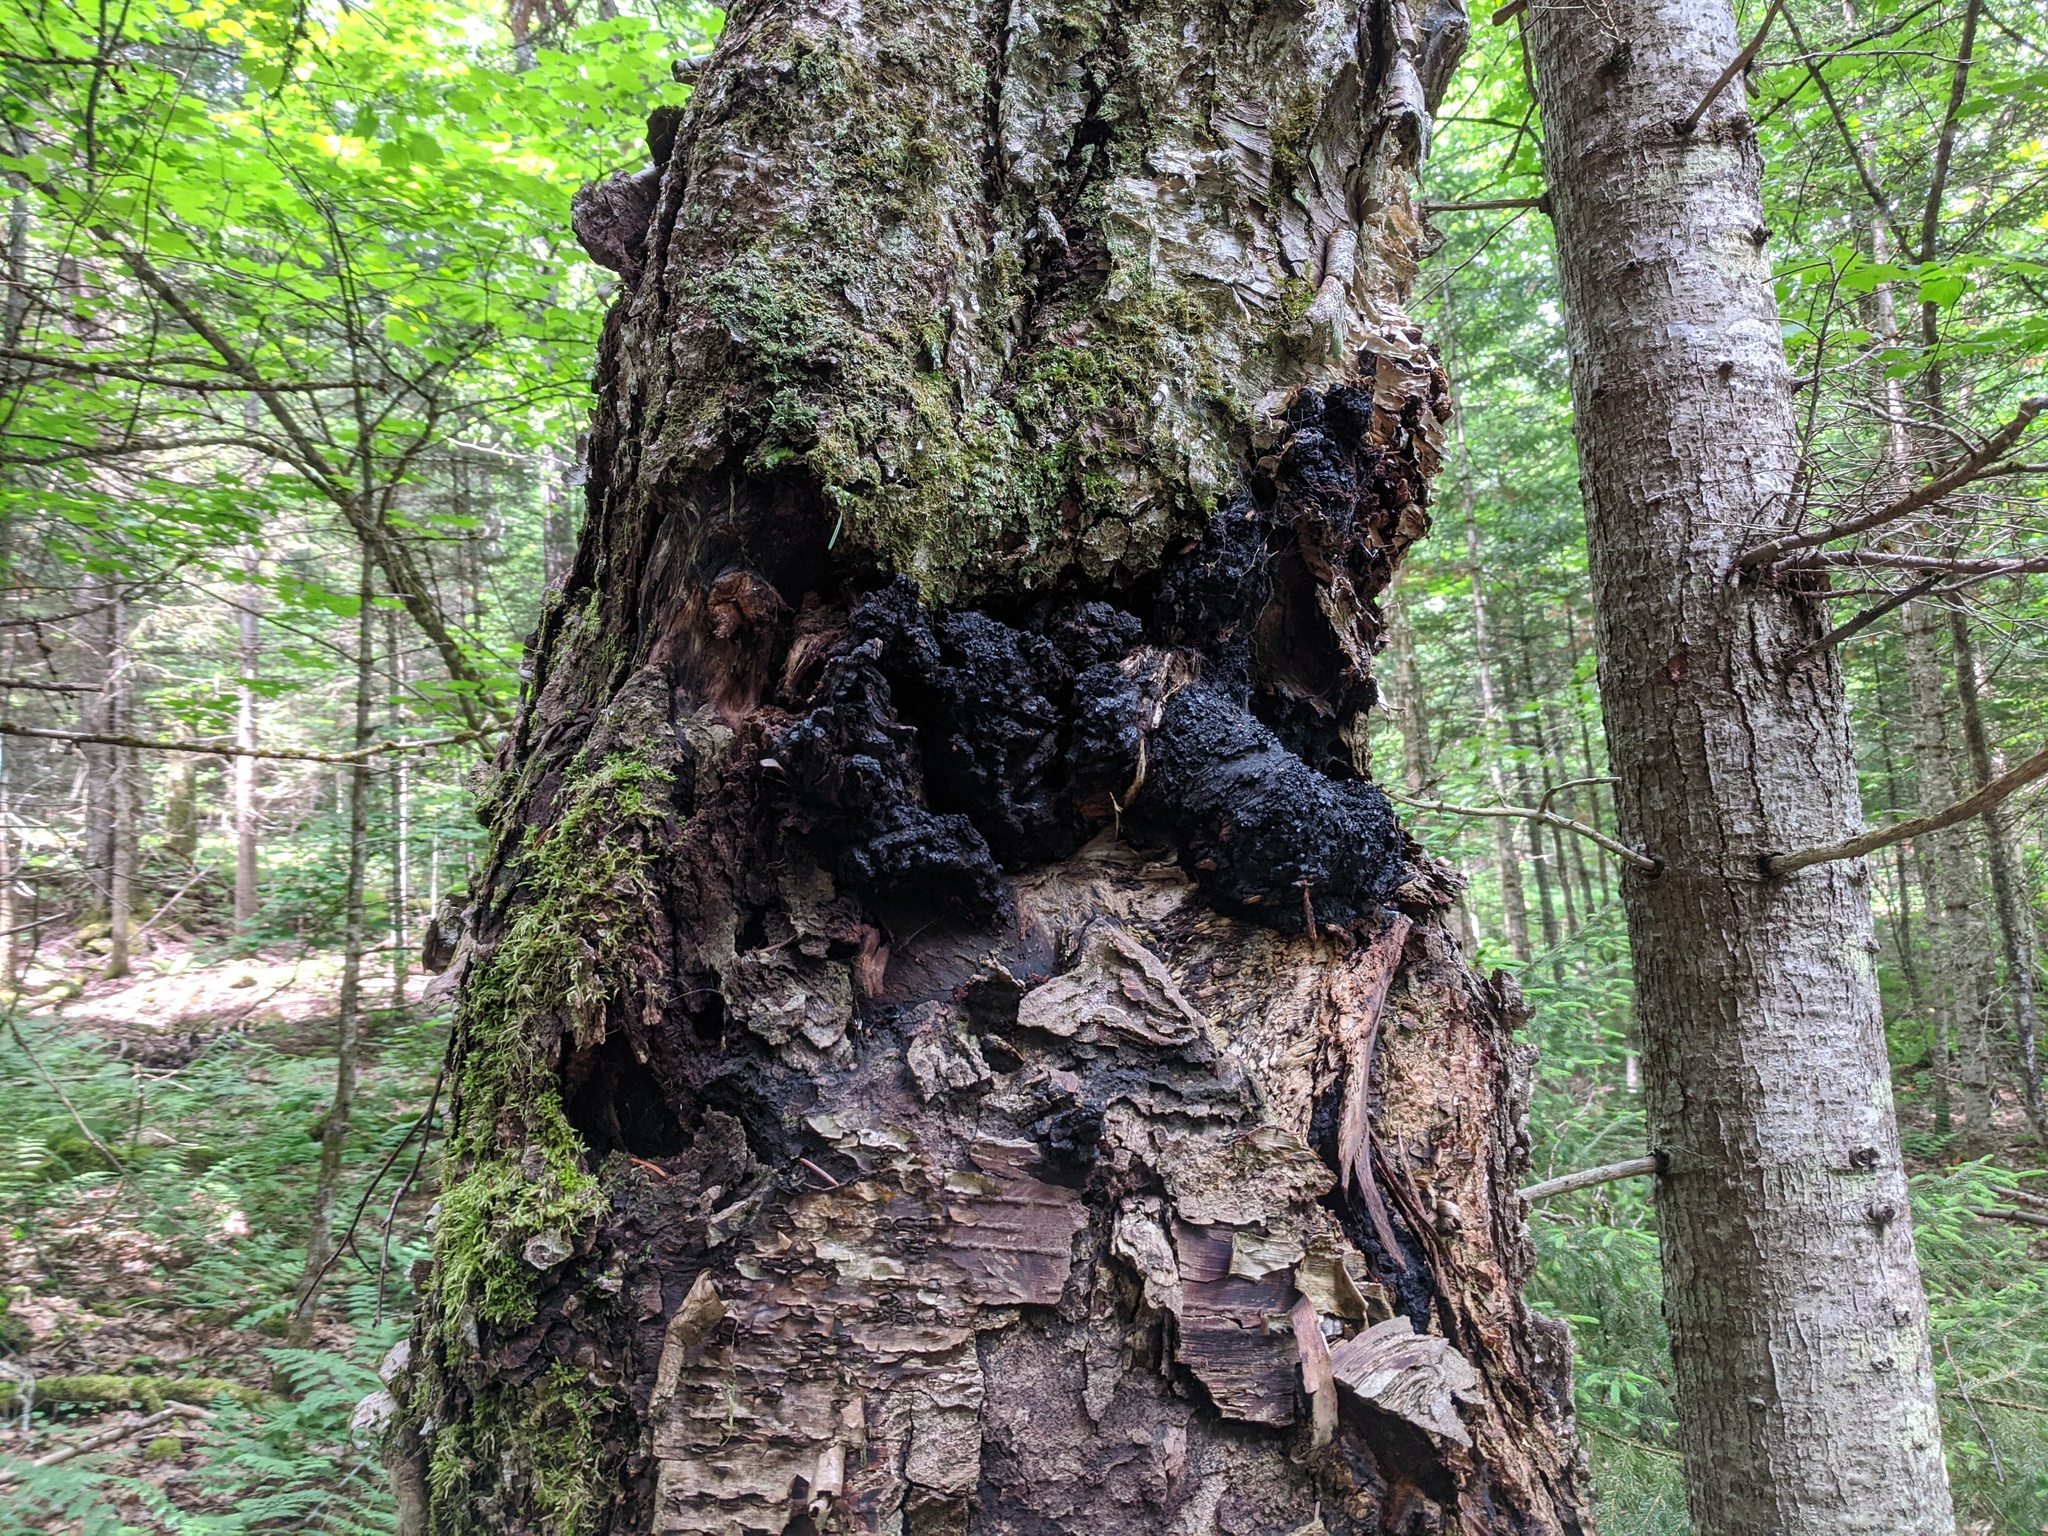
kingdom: Fungi
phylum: Basidiomycota
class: Agaricomycetes
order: Hymenochaetales
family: Hymenochaetaceae
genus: Inonotus
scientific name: Inonotus obliquus
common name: Chaga
